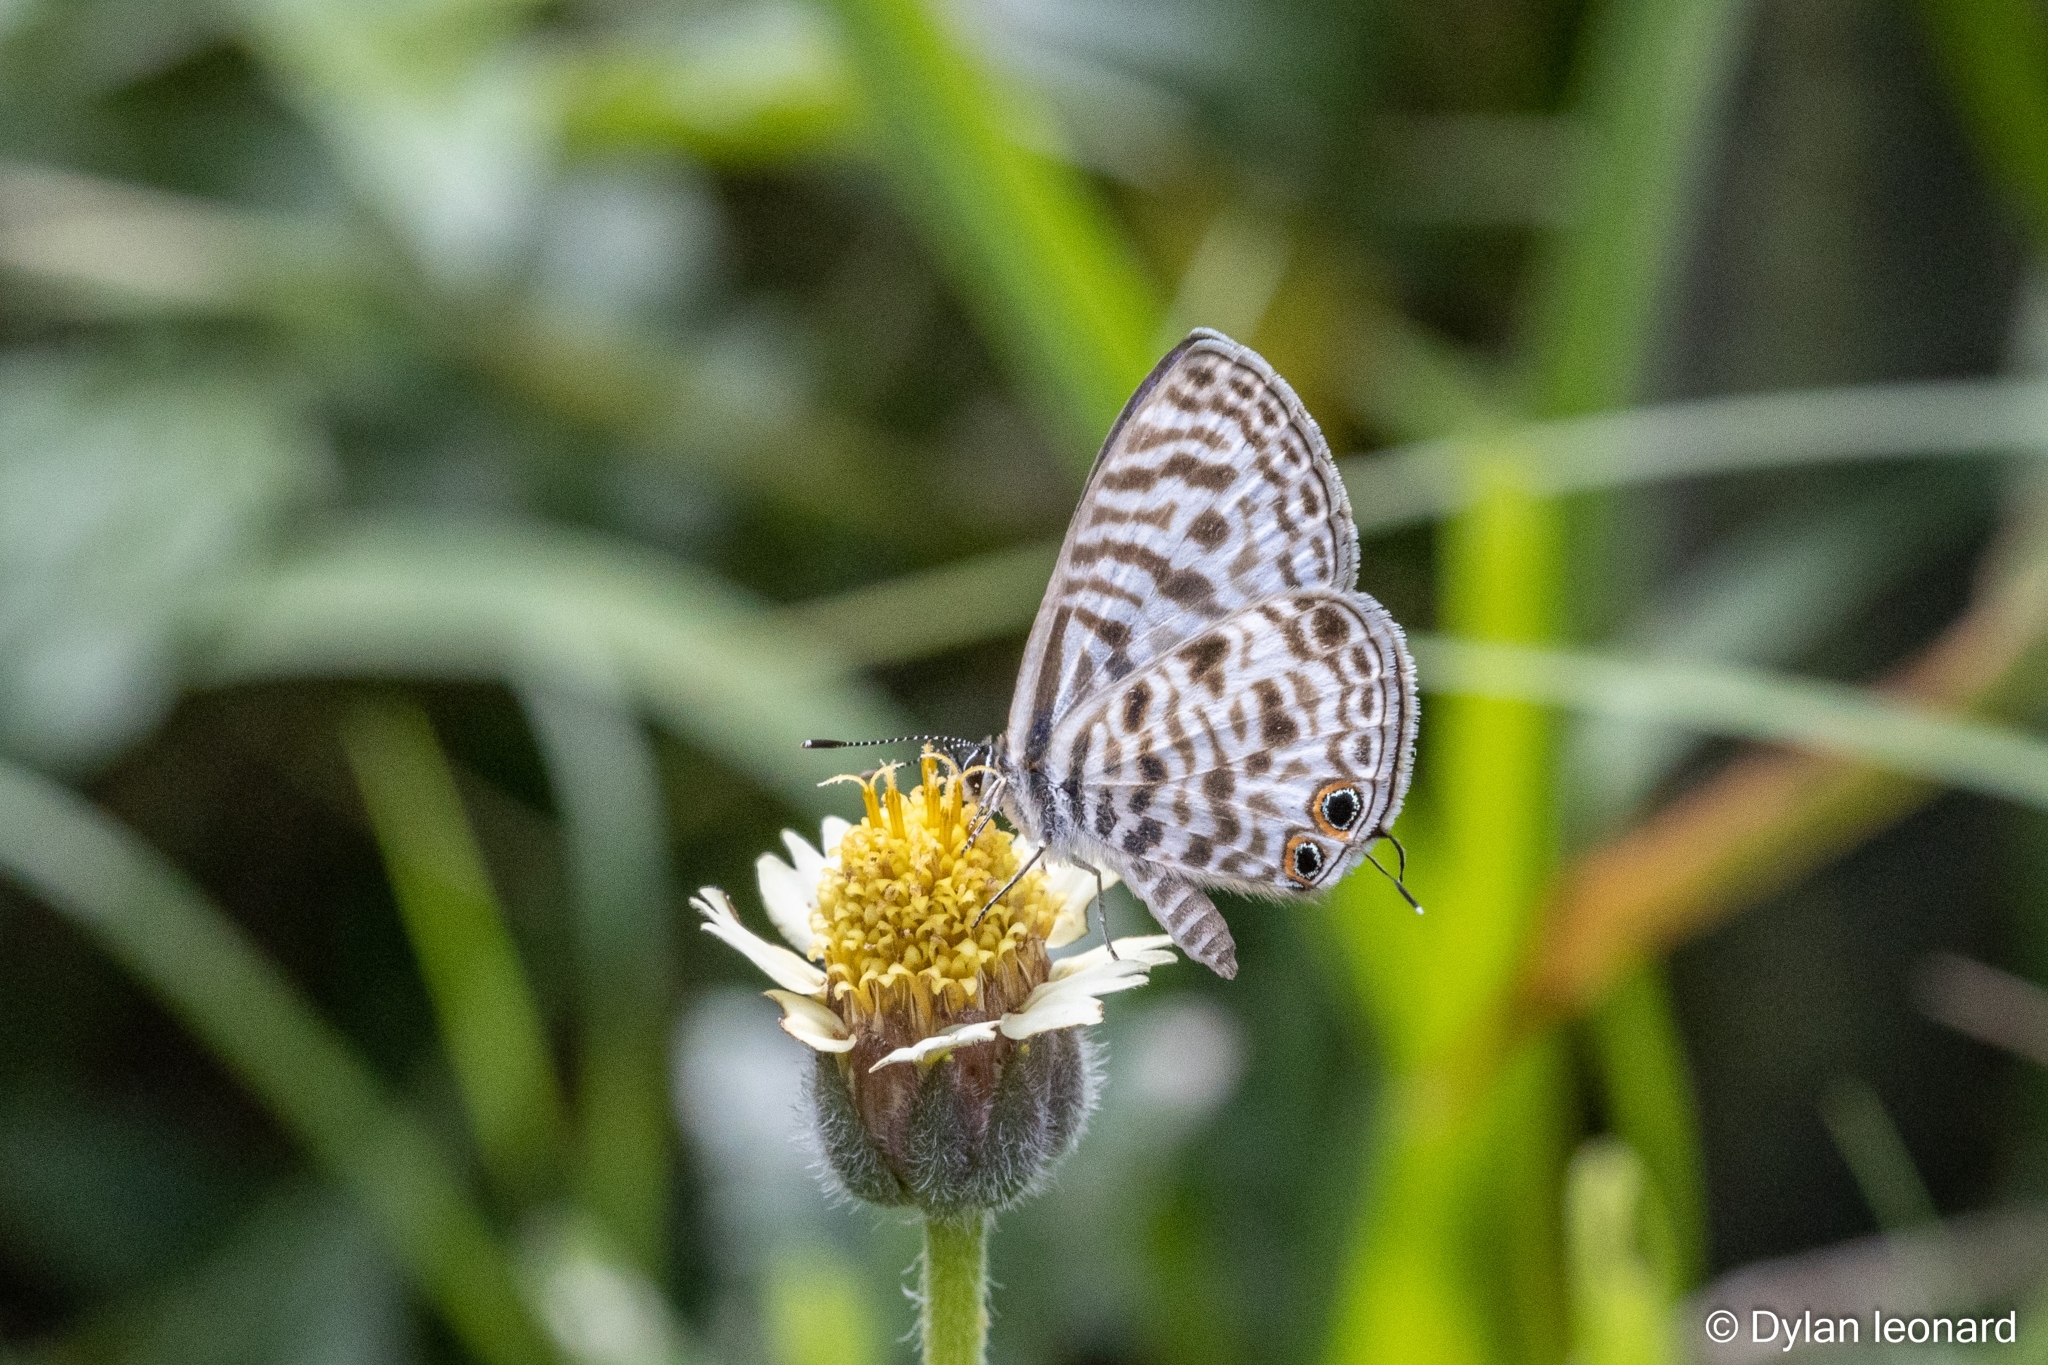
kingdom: Animalia
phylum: Arthropoda
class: Insecta
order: Lepidoptera
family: Lycaenidae
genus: Leptotes
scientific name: Leptotes
